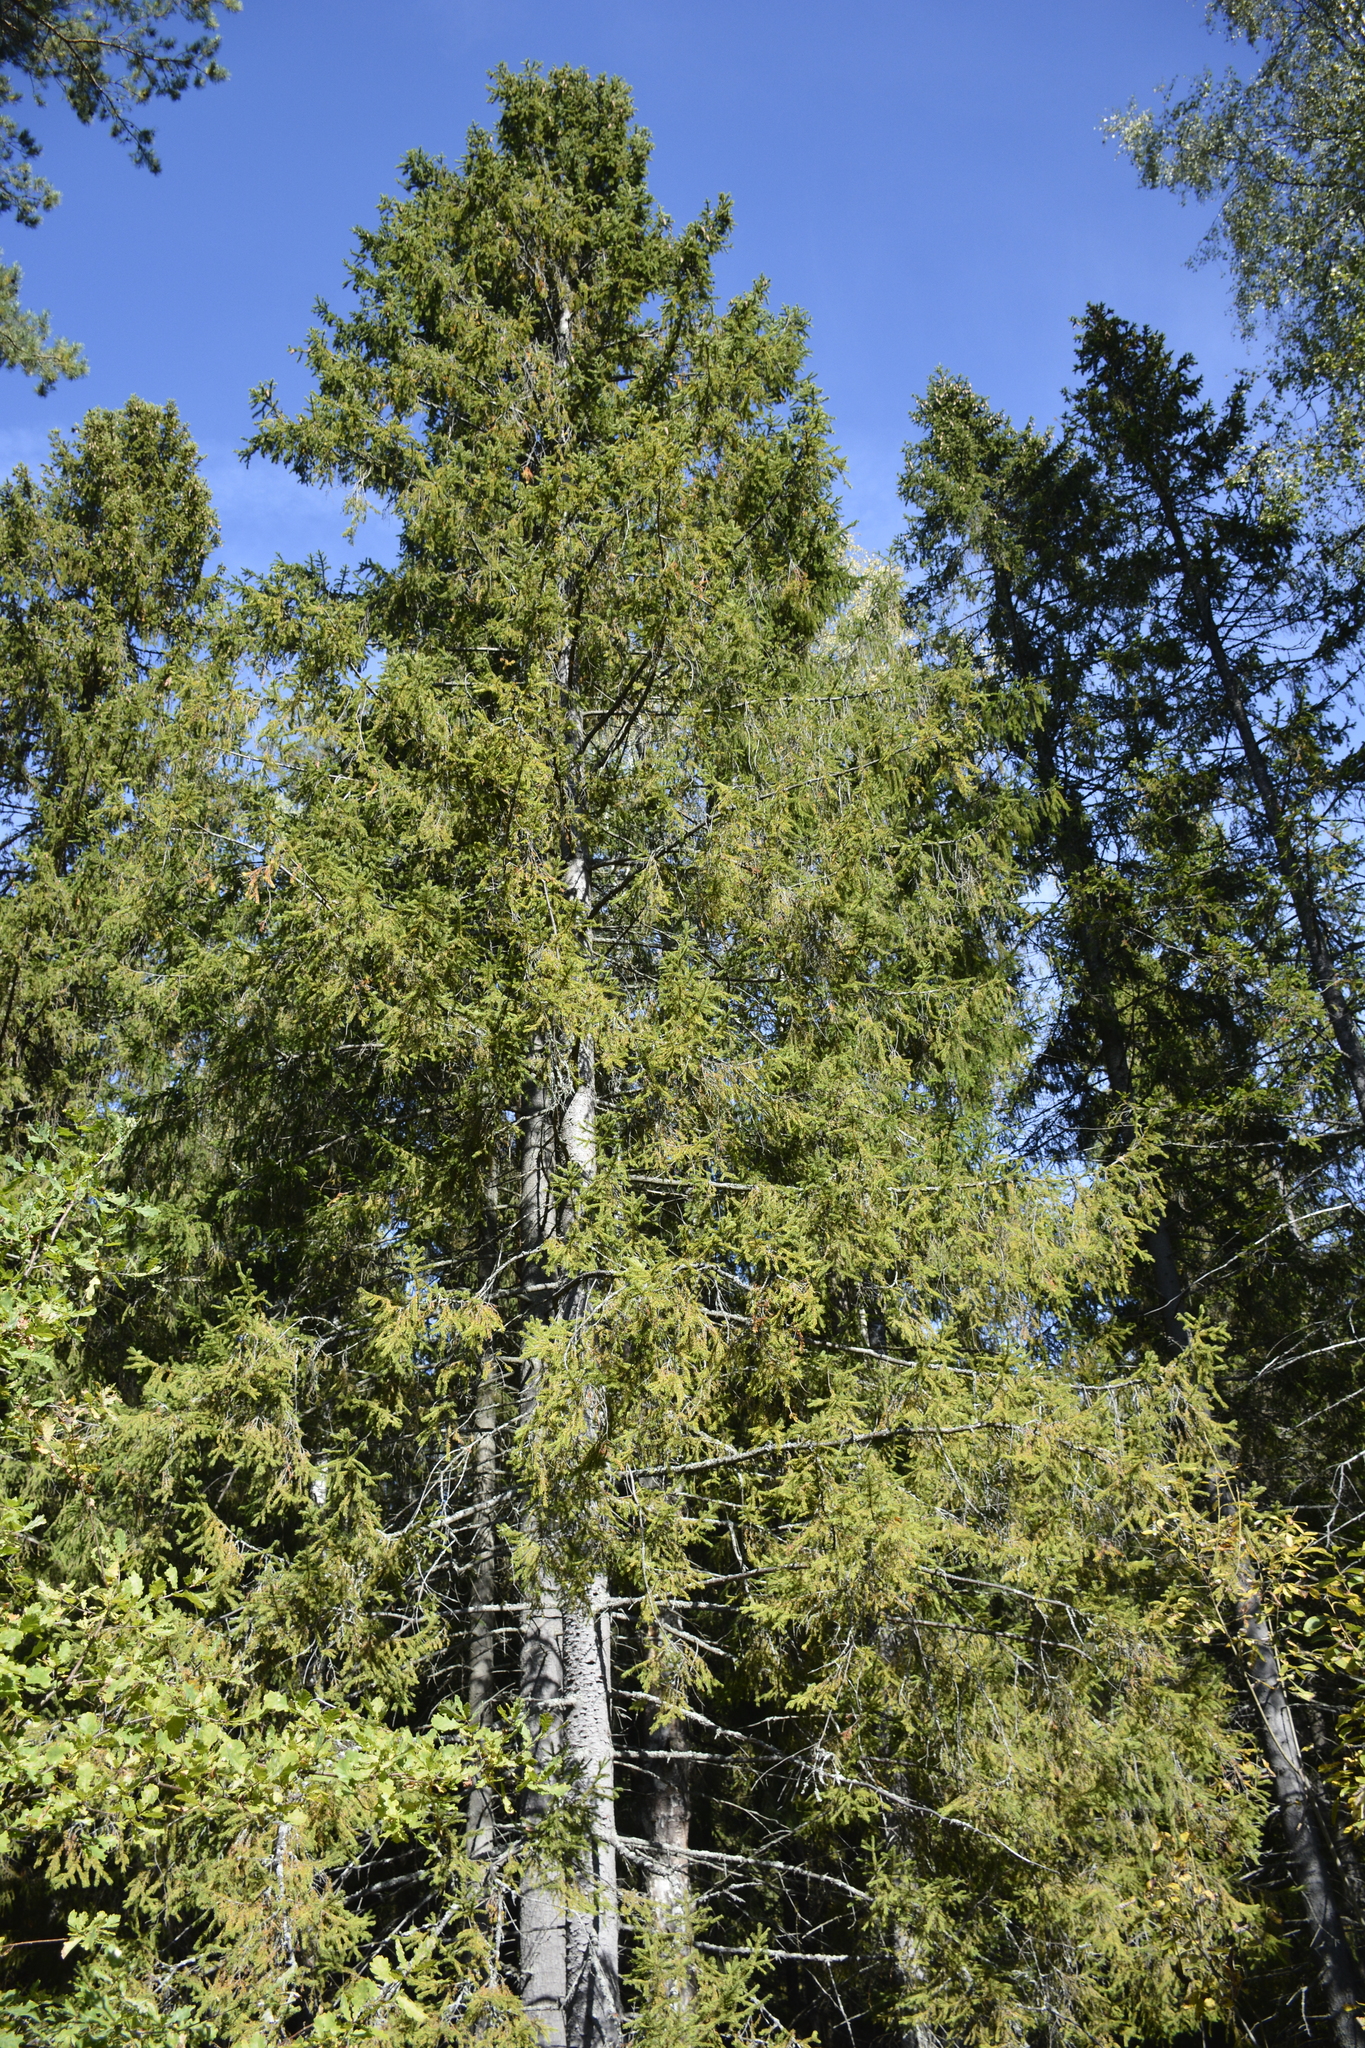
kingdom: Plantae
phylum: Tracheophyta
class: Pinopsida
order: Pinales
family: Pinaceae
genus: Picea
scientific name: Picea abies
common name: Norway spruce
